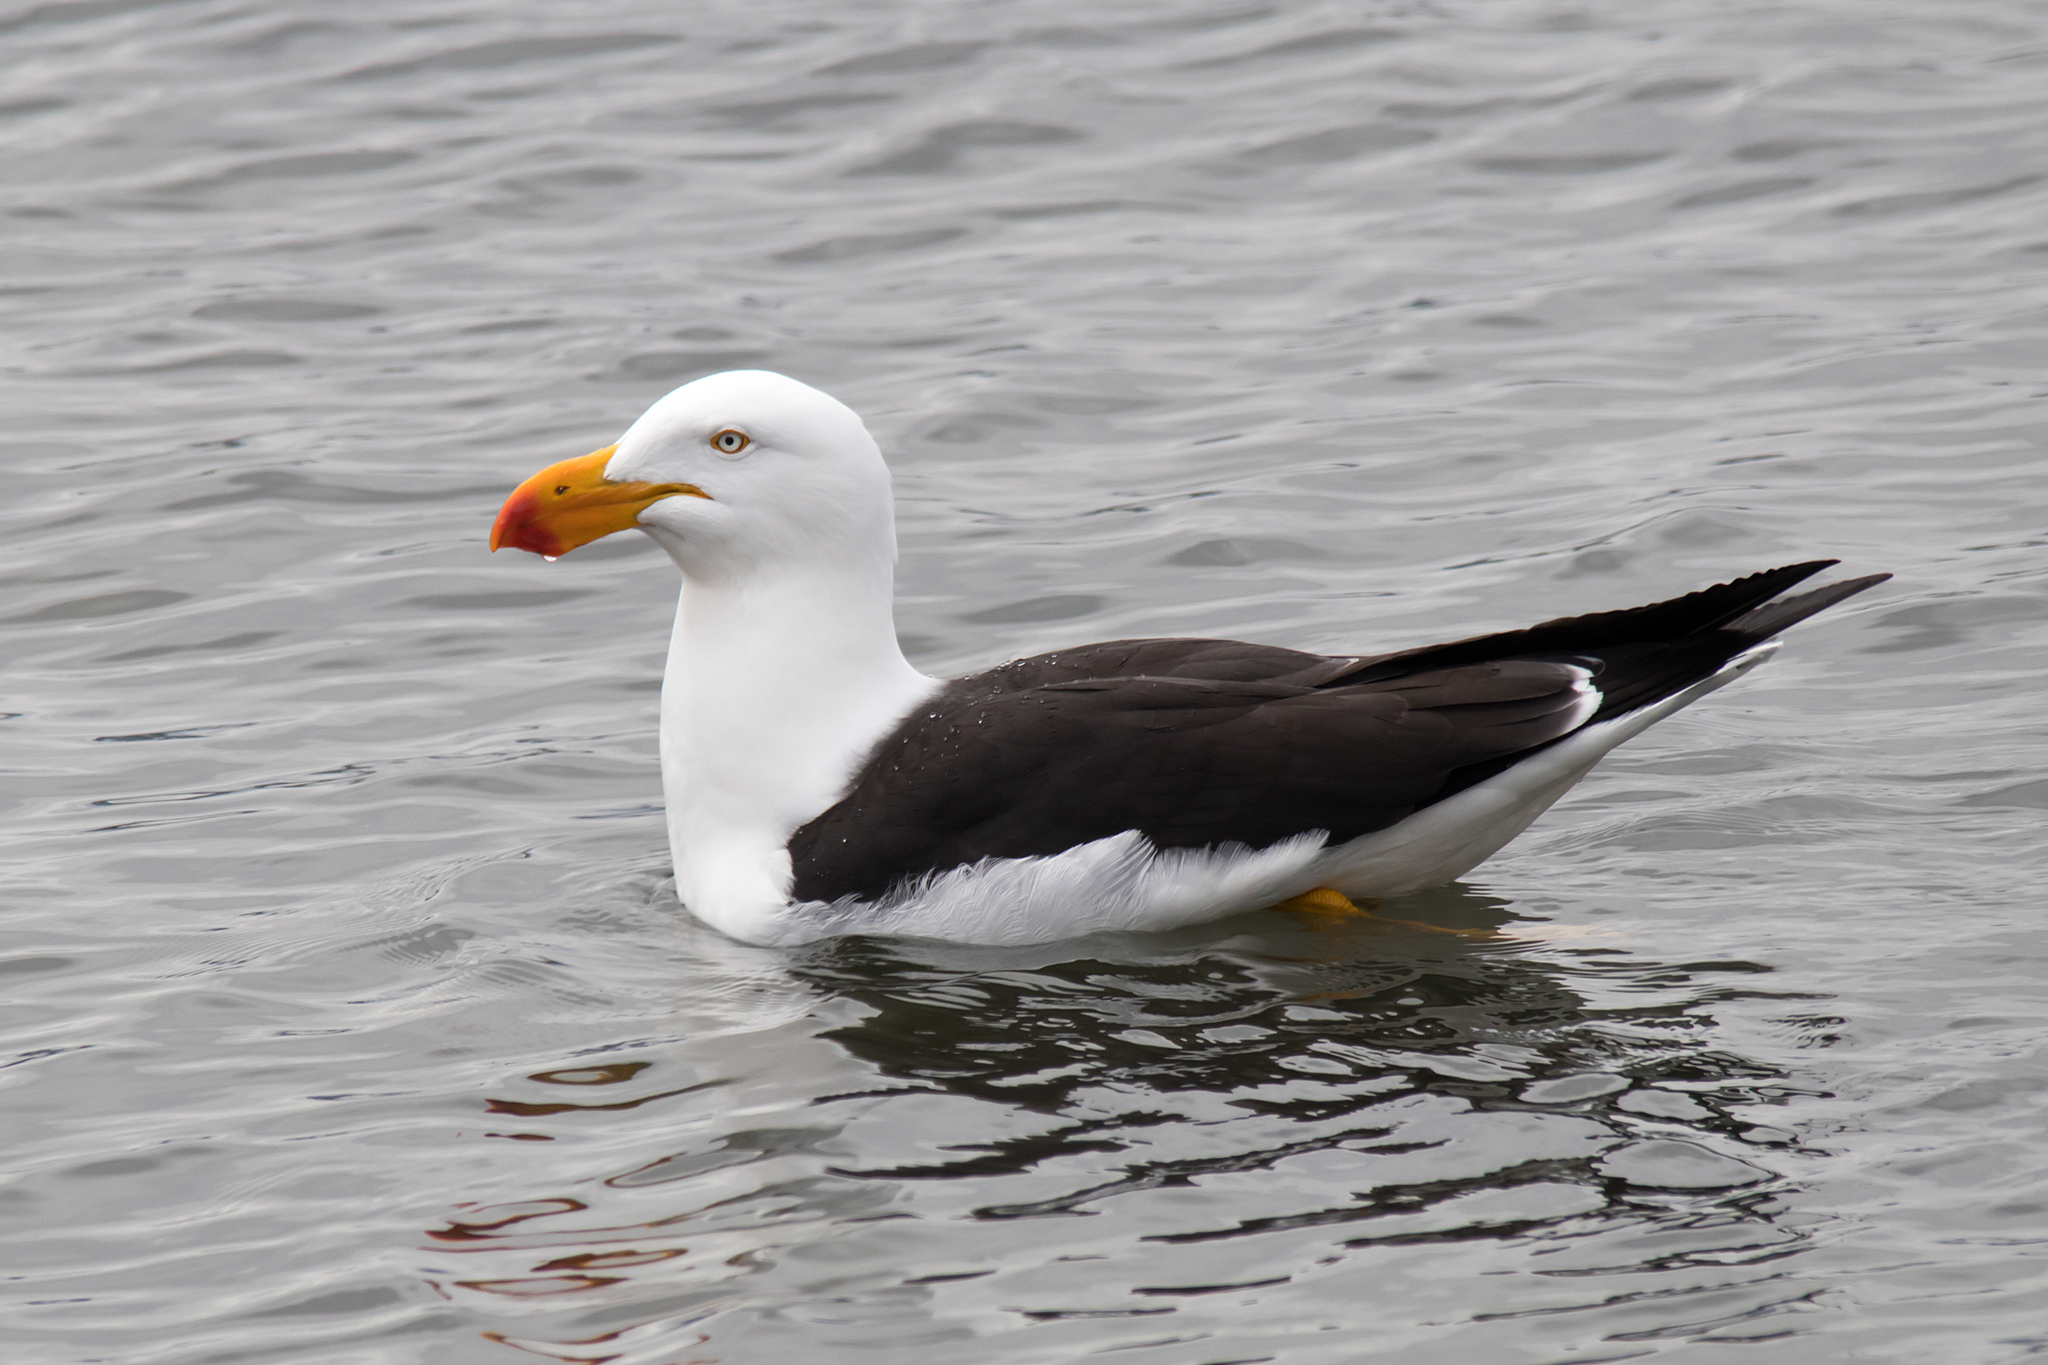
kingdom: Animalia
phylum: Chordata
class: Aves
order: Charadriiformes
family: Laridae
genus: Larus
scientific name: Larus pacificus
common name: Pacific gull
